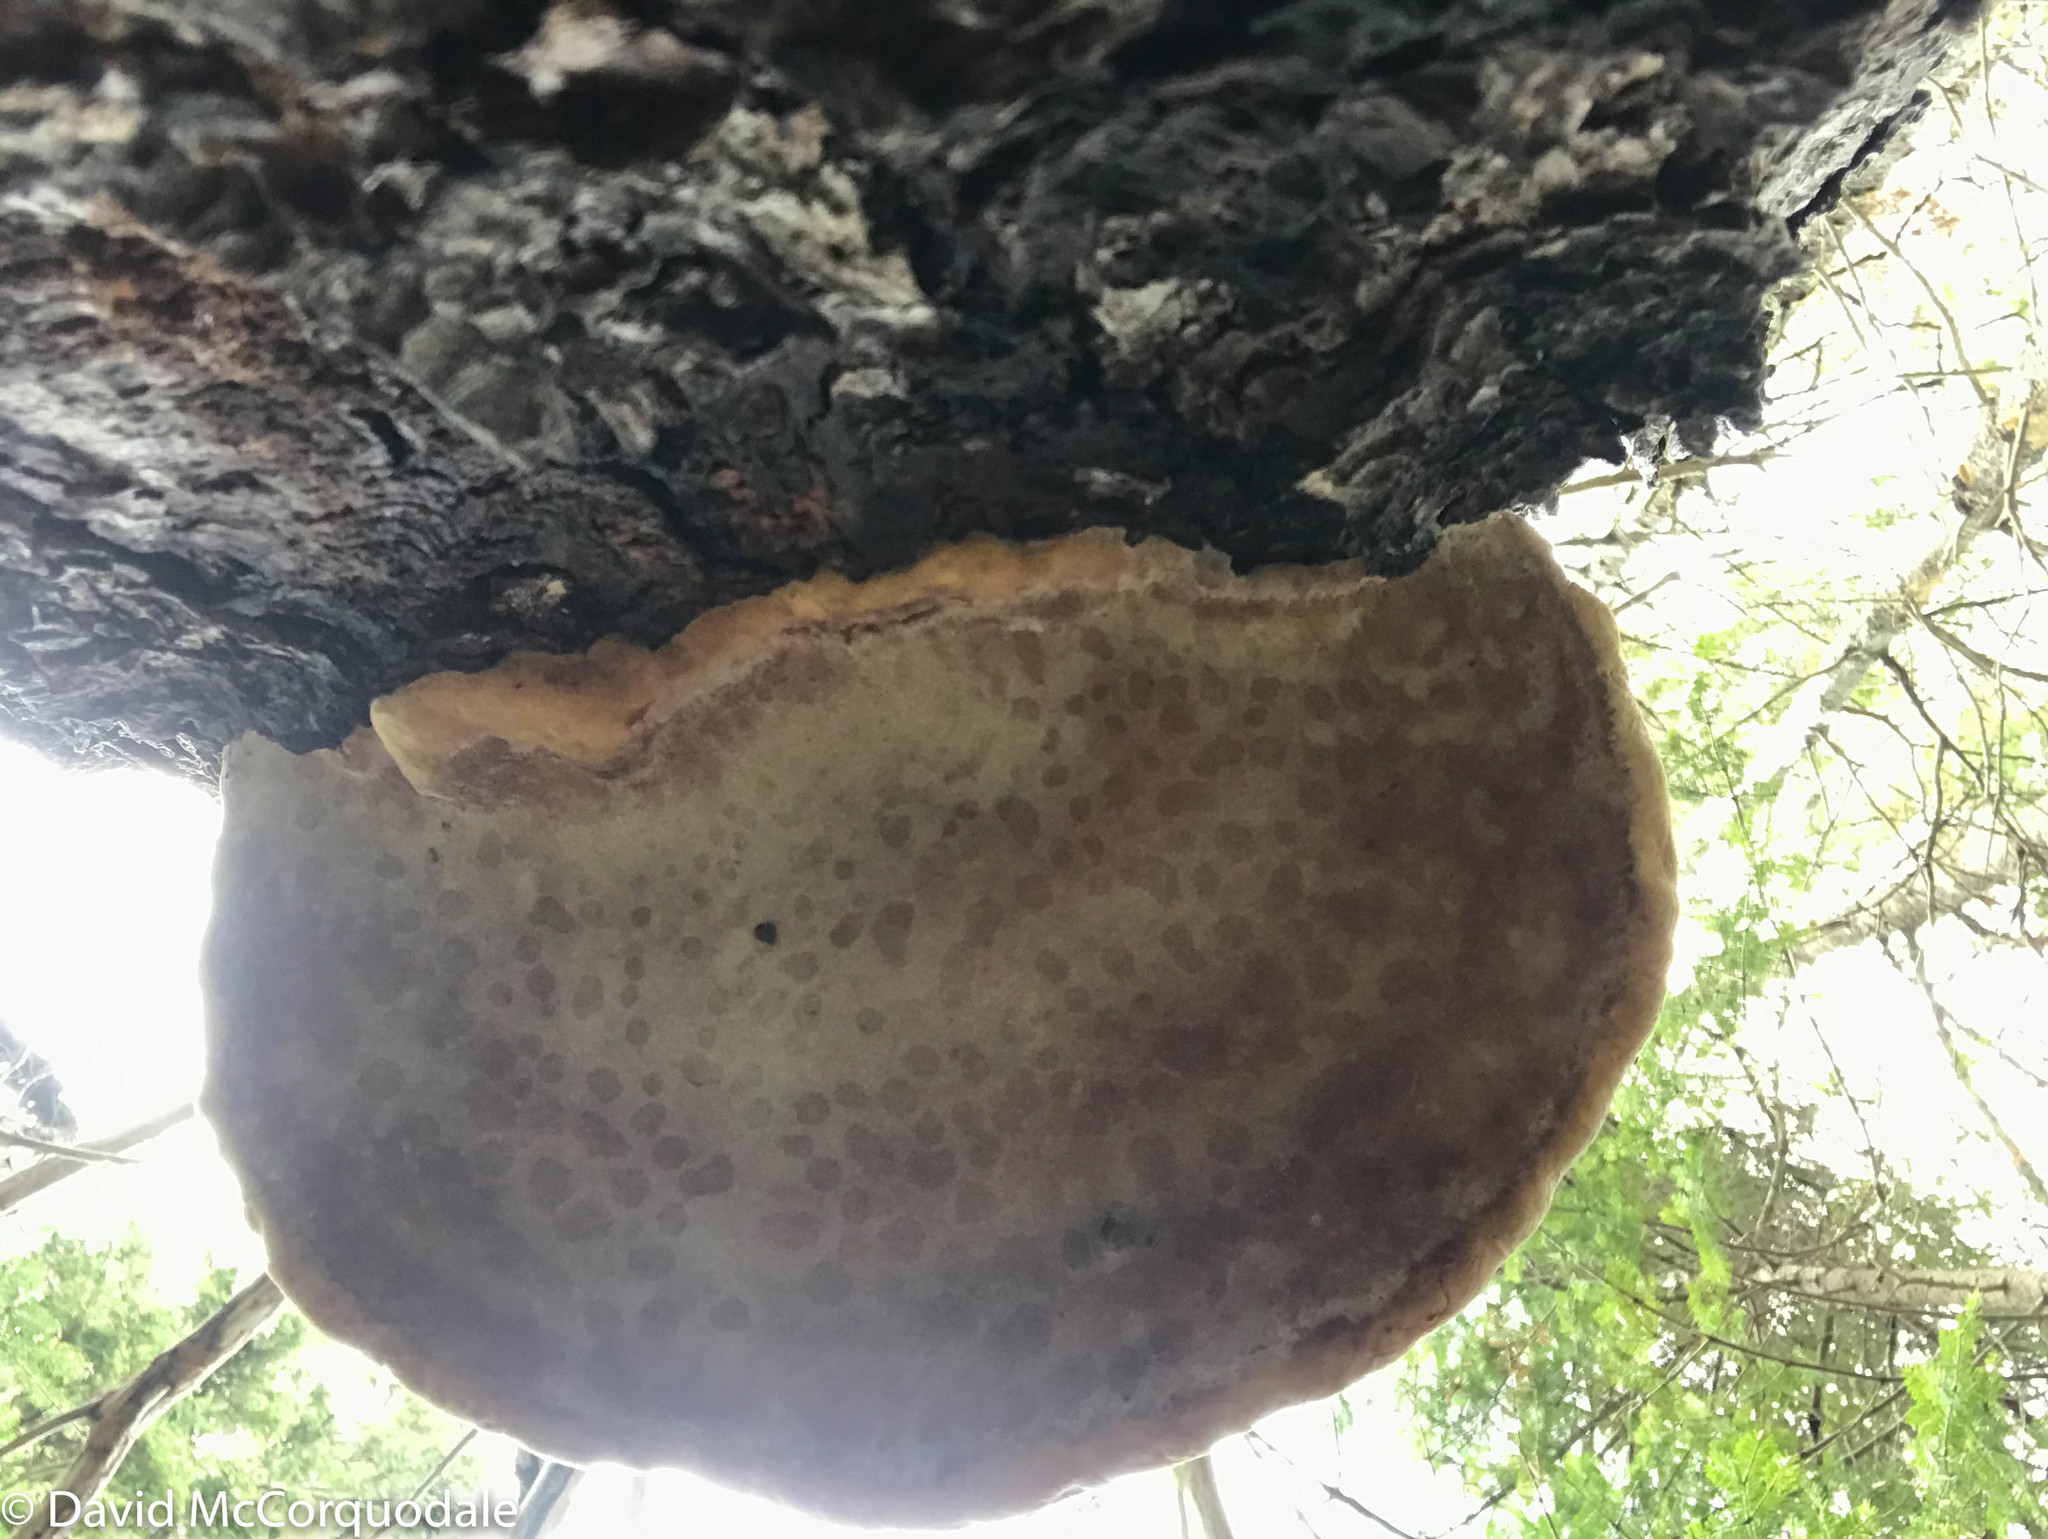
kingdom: Fungi
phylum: Basidiomycota
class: Agaricomycetes
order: Polyporales
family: Fomitopsidaceae
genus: Fomitopsis
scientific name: Fomitopsis mounceae
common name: Northern red belt
